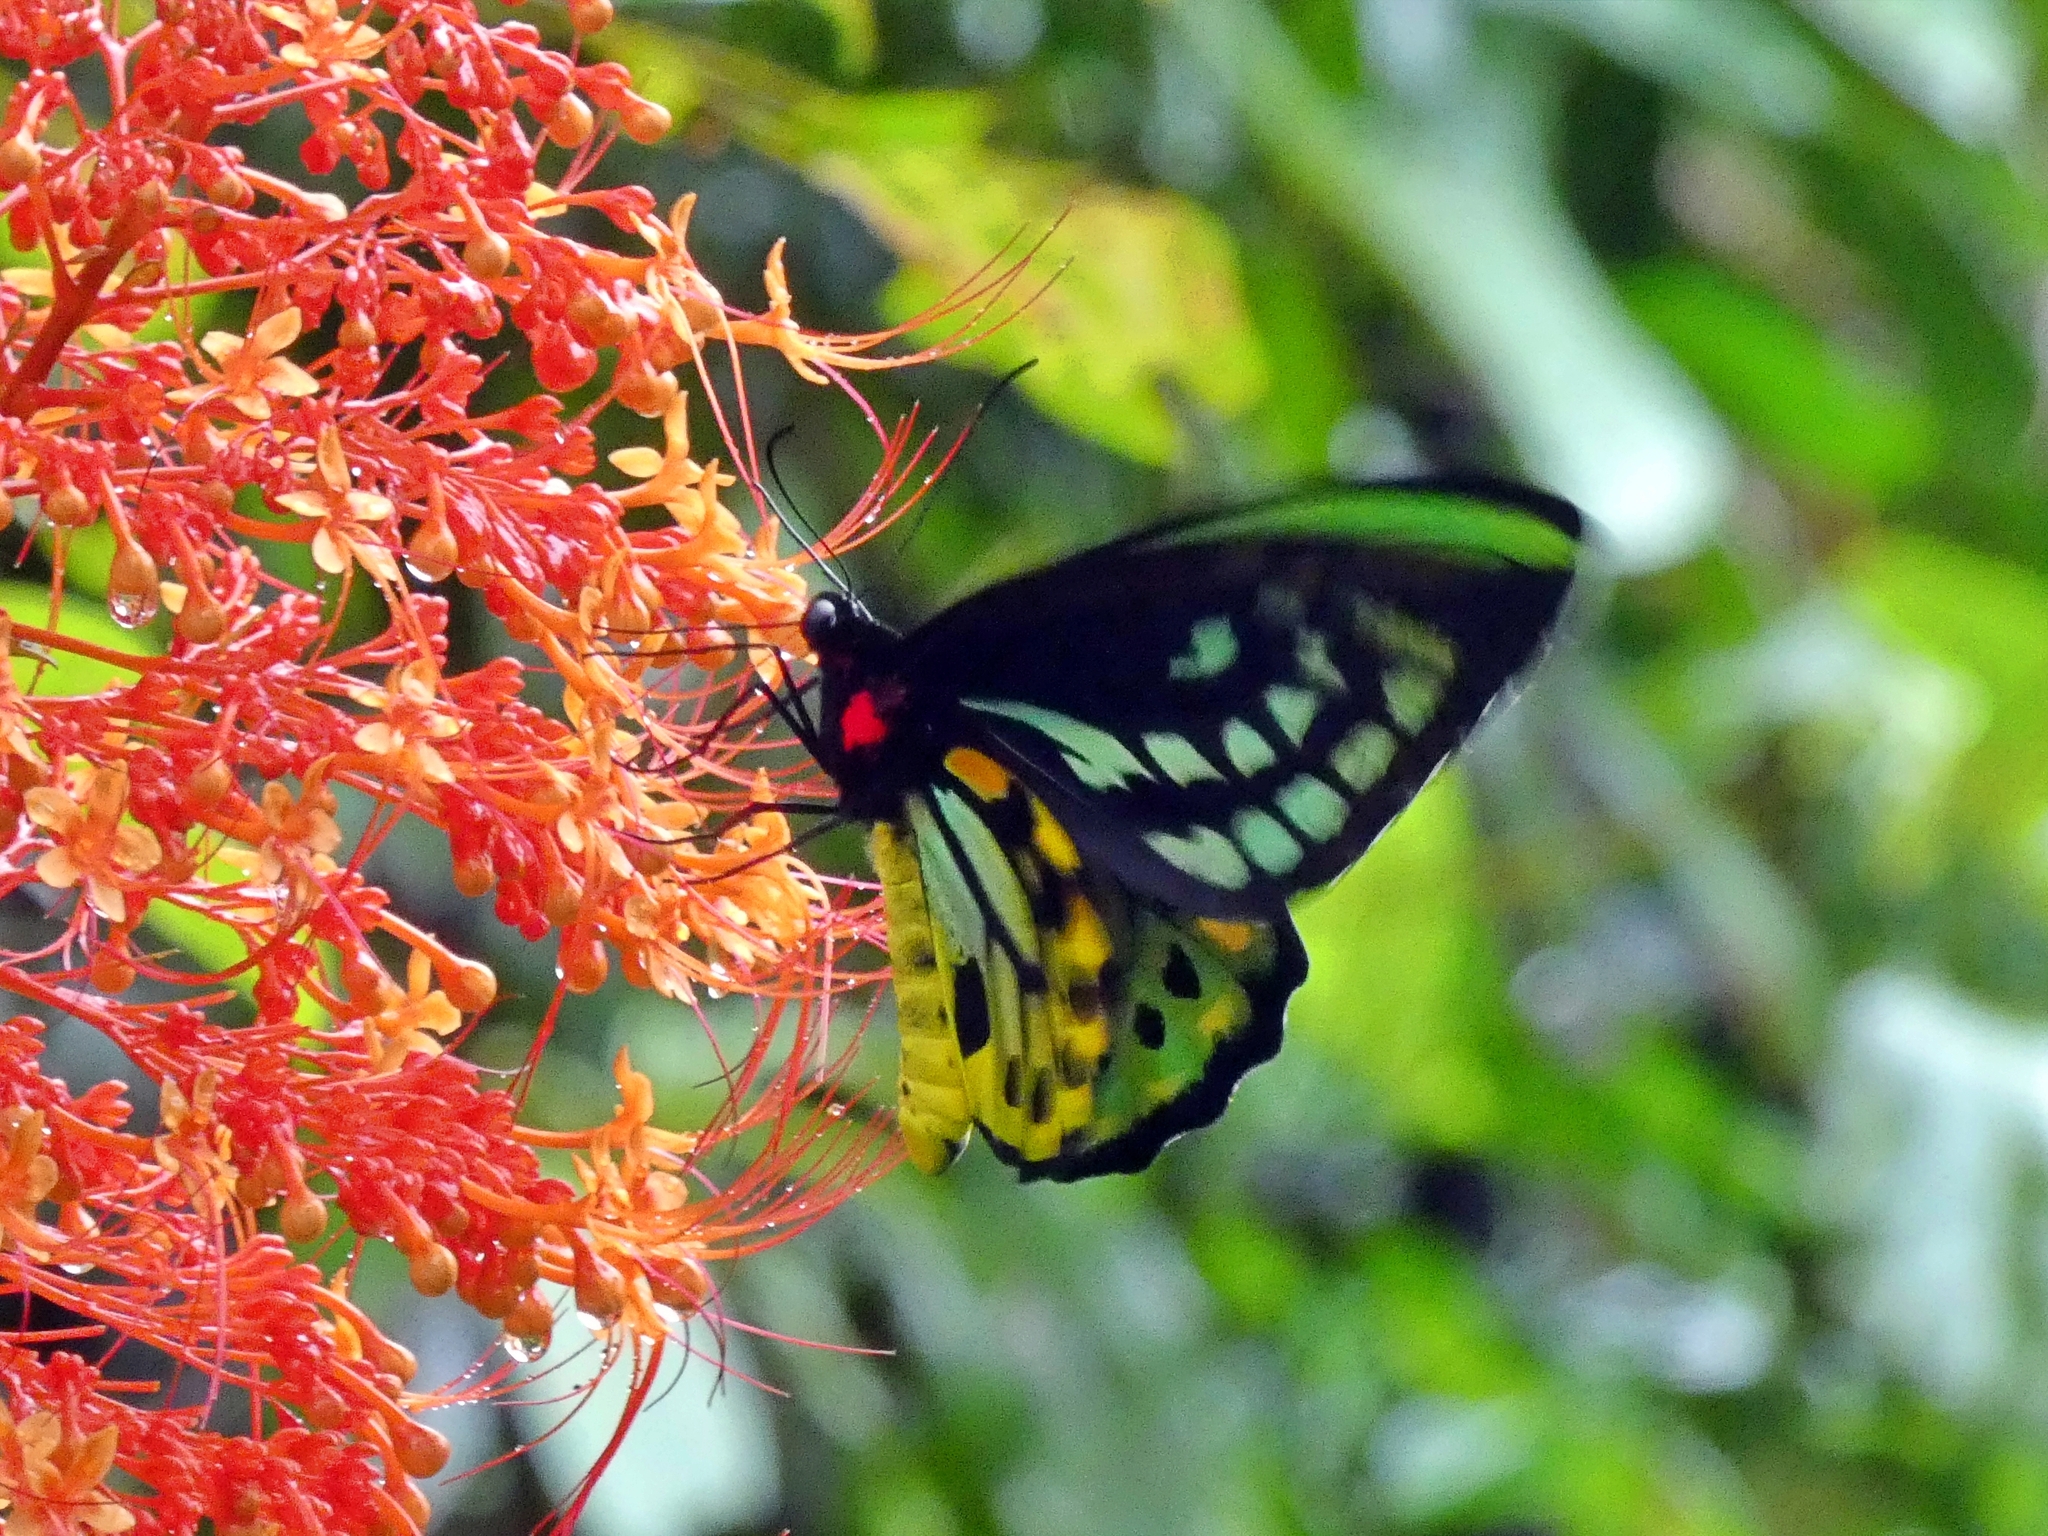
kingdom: Animalia
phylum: Arthropoda
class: Insecta
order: Lepidoptera
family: Papilionidae
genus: Ornithoptera
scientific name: Ornithoptera euphorion
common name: Cairns birdwing
